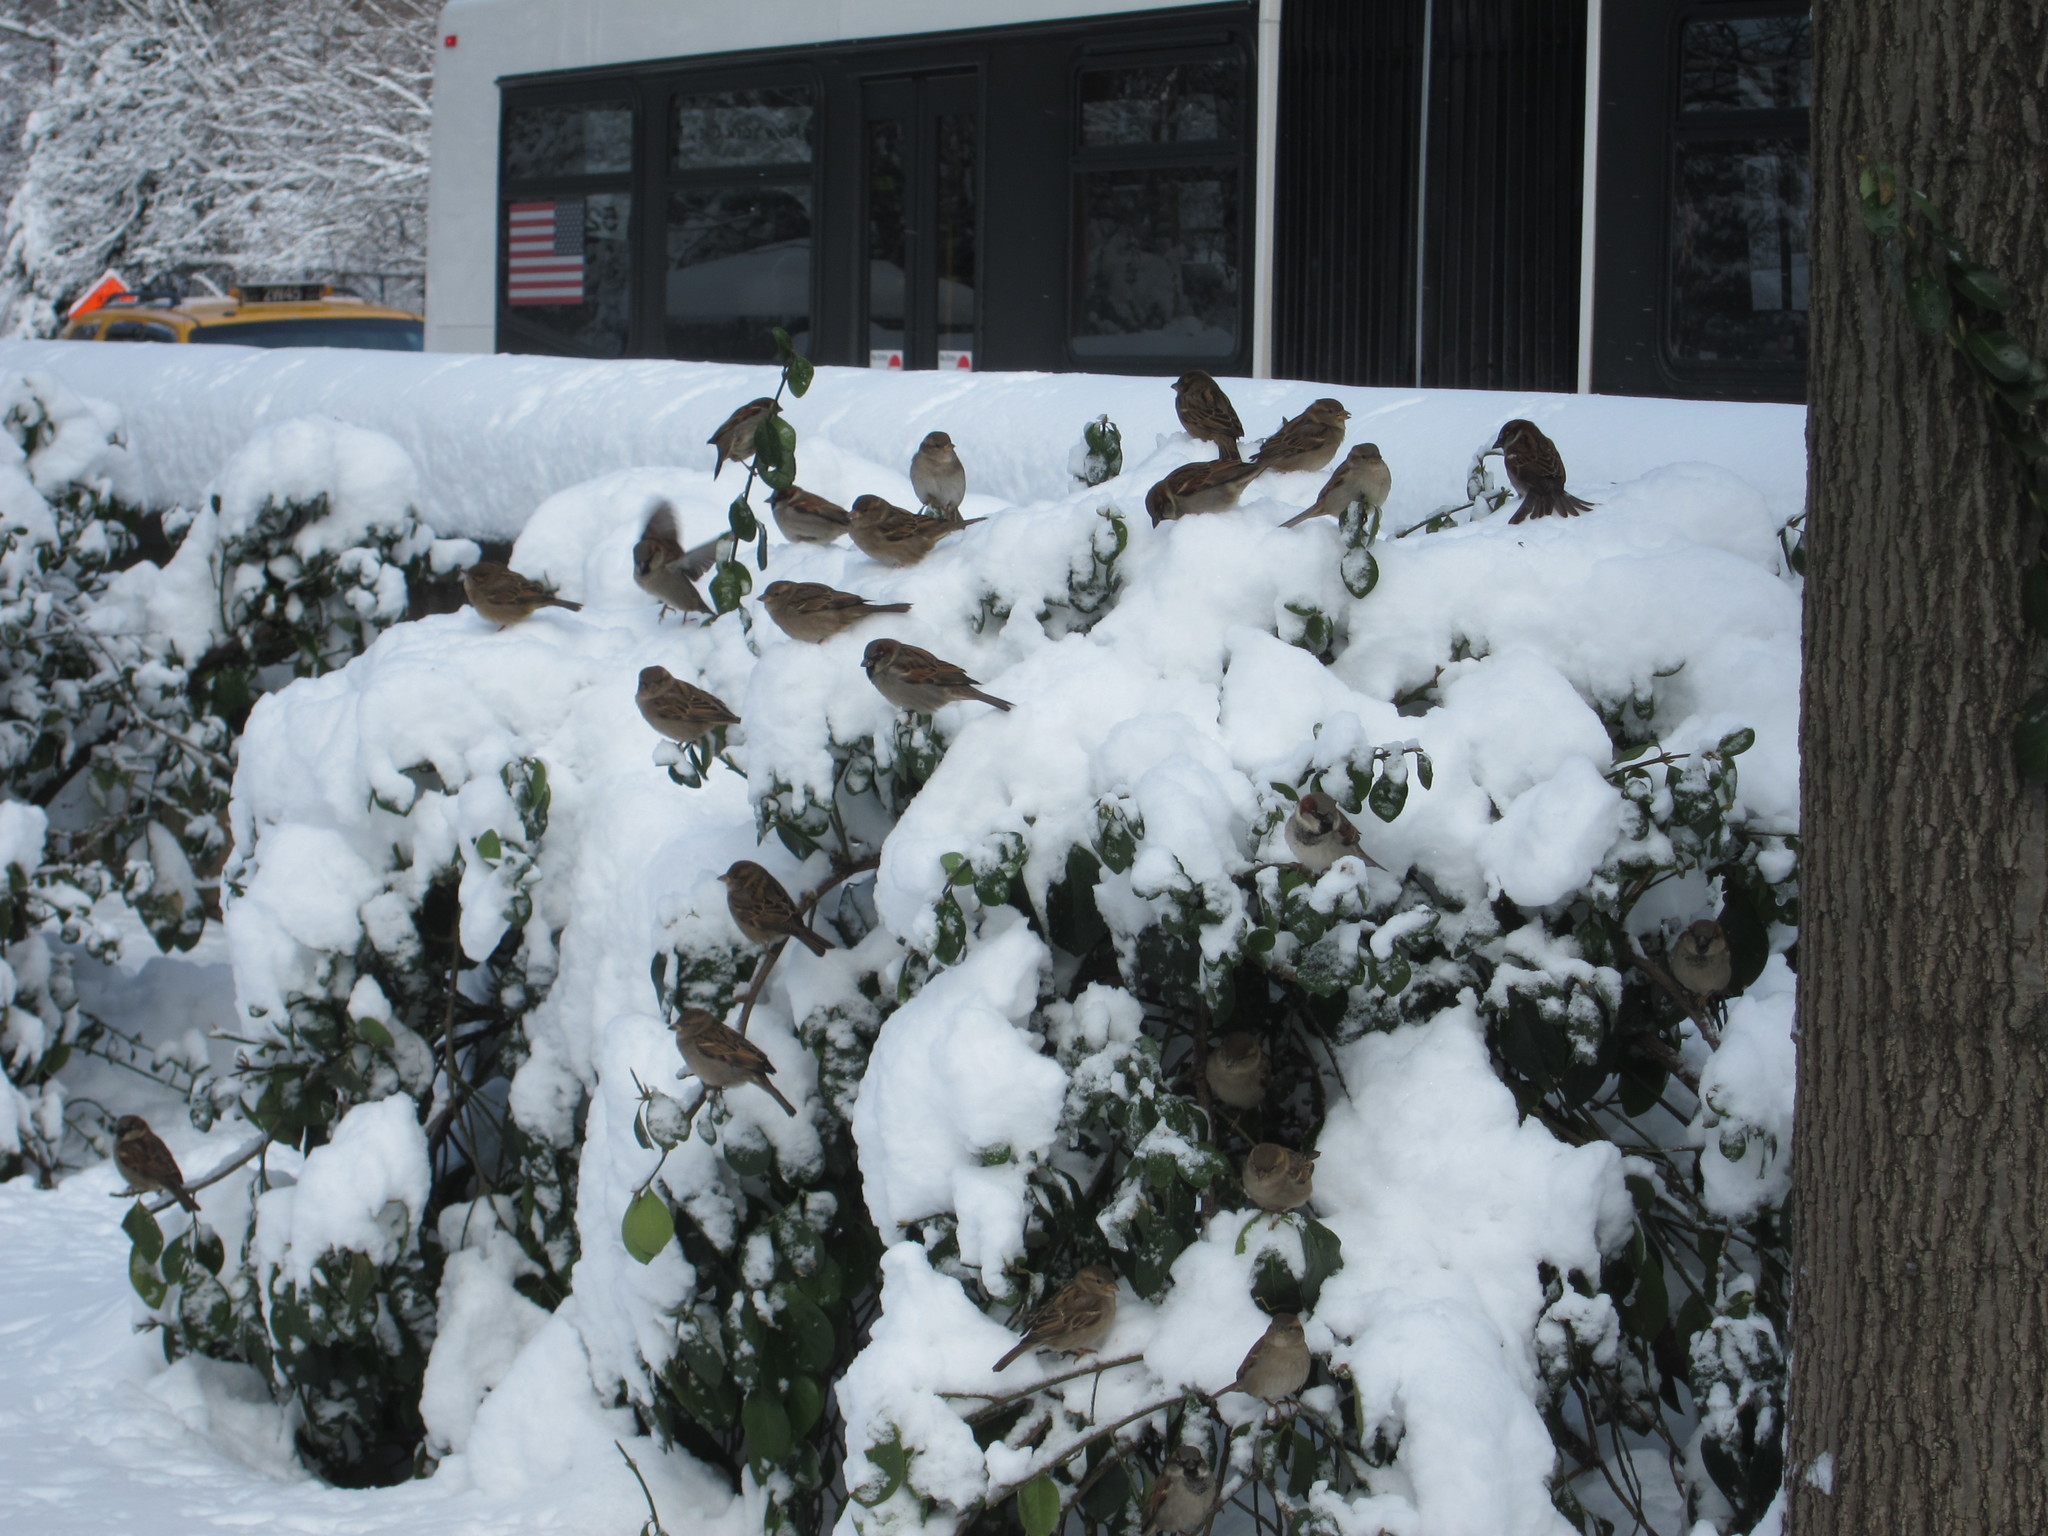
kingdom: Animalia
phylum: Chordata
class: Aves
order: Passeriformes
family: Passeridae
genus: Passer
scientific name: Passer domesticus
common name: House sparrow
